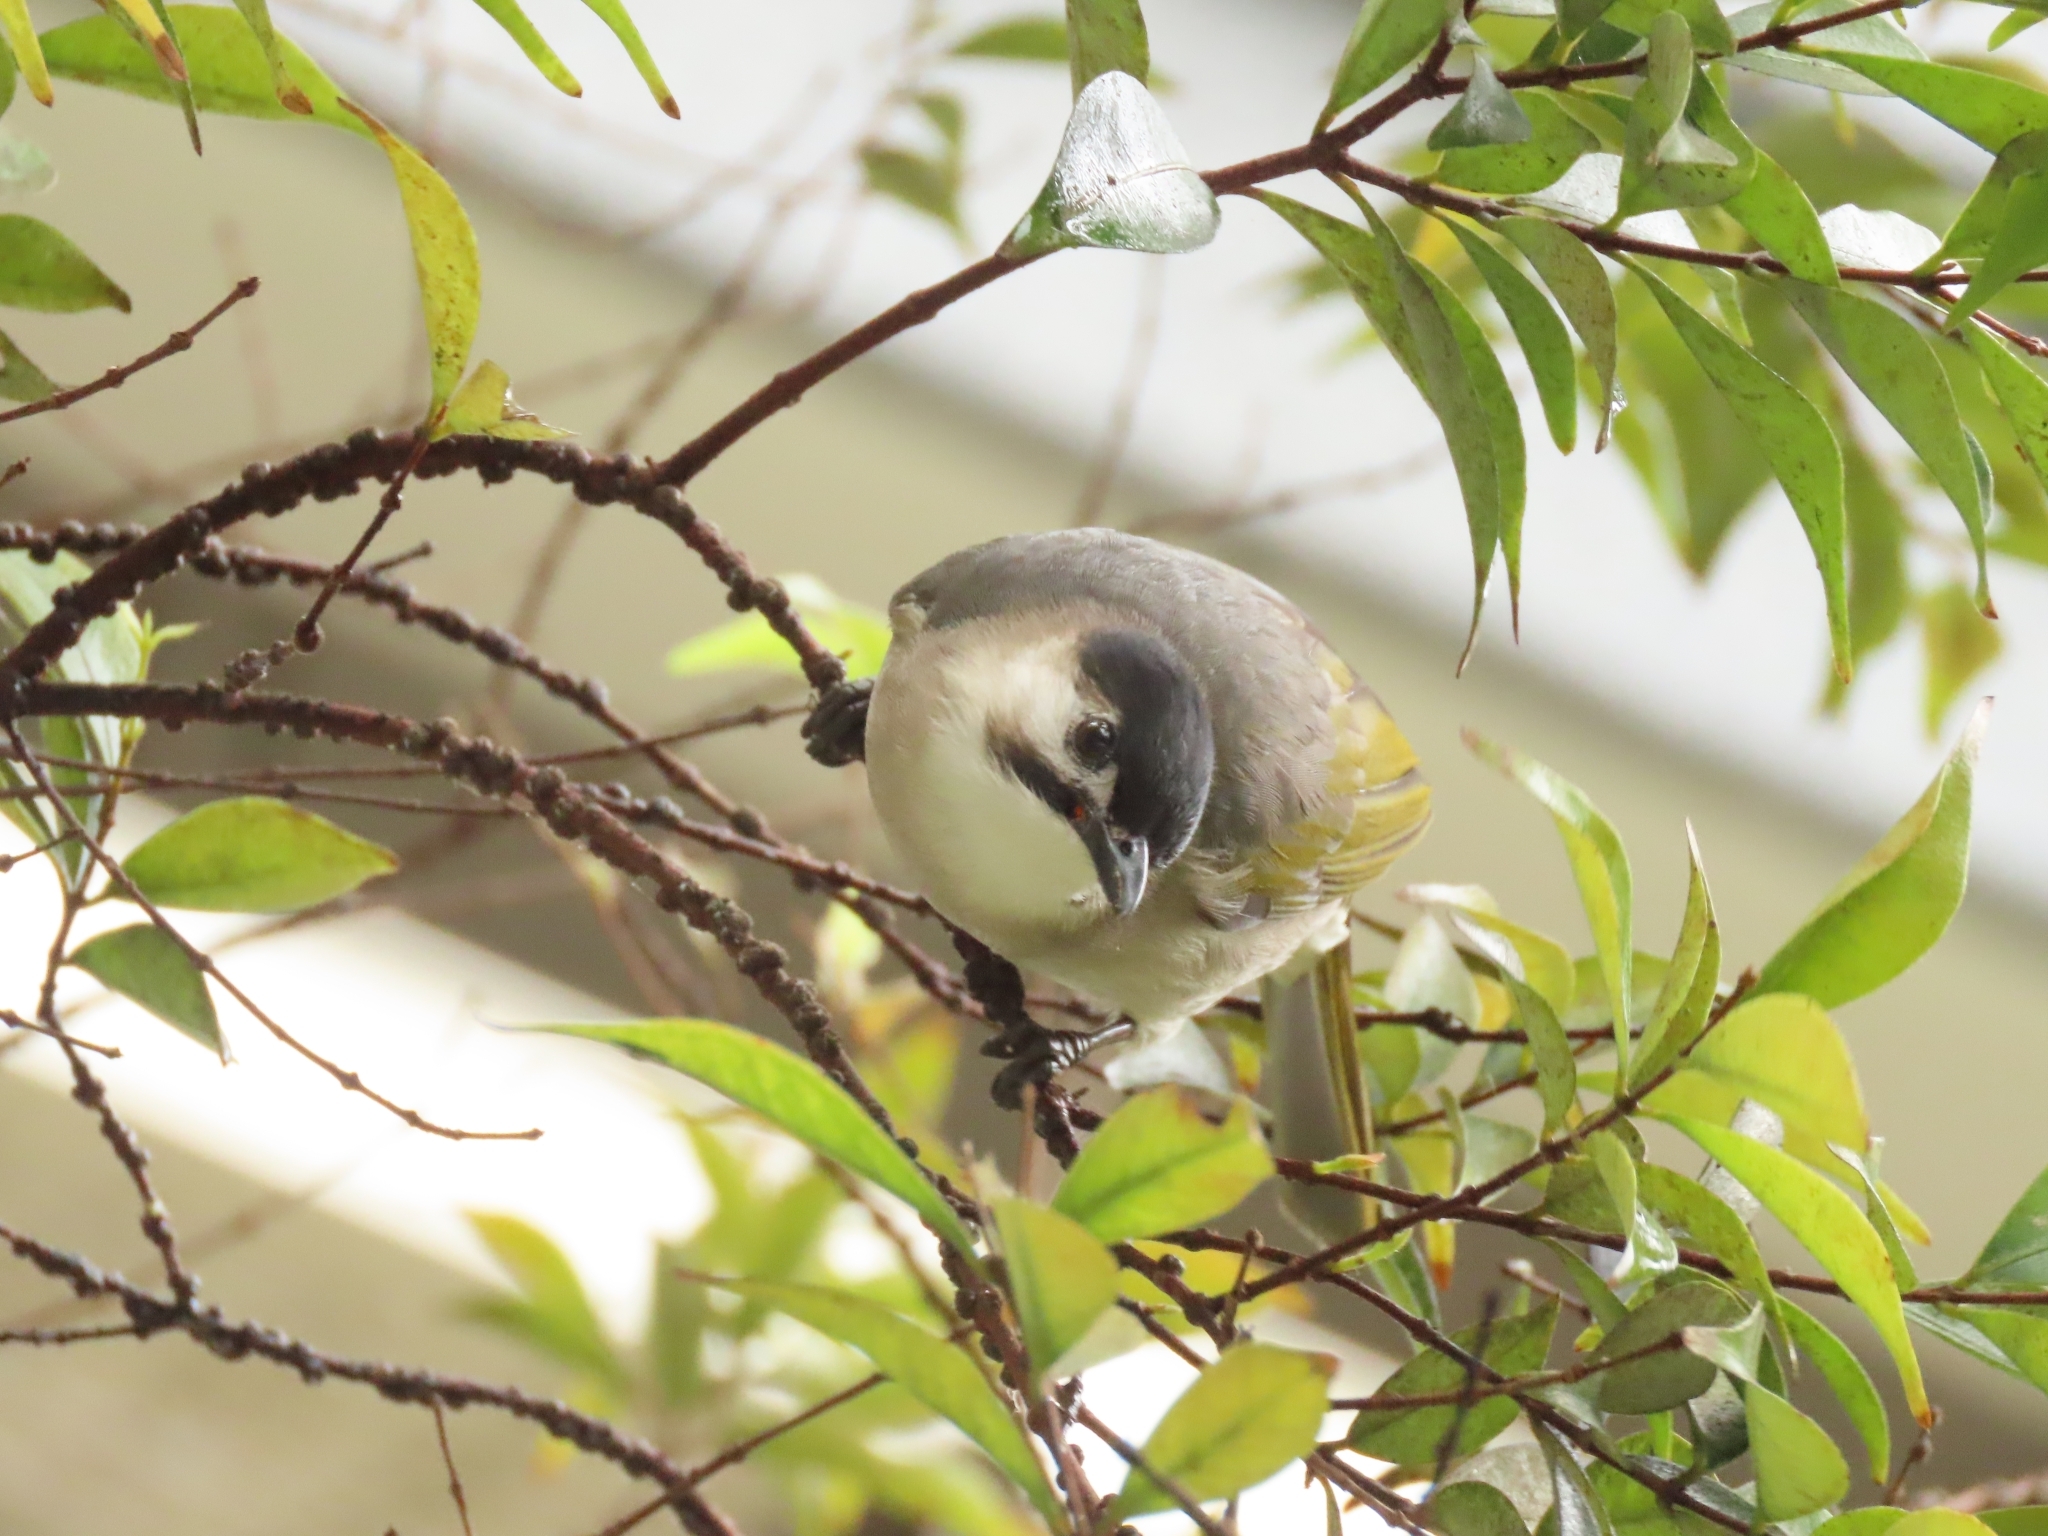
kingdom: Animalia
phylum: Chordata
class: Aves
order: Passeriformes
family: Pycnonotidae
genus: Pycnonotus
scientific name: Pycnonotus taivanus
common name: Styan's bulbul
